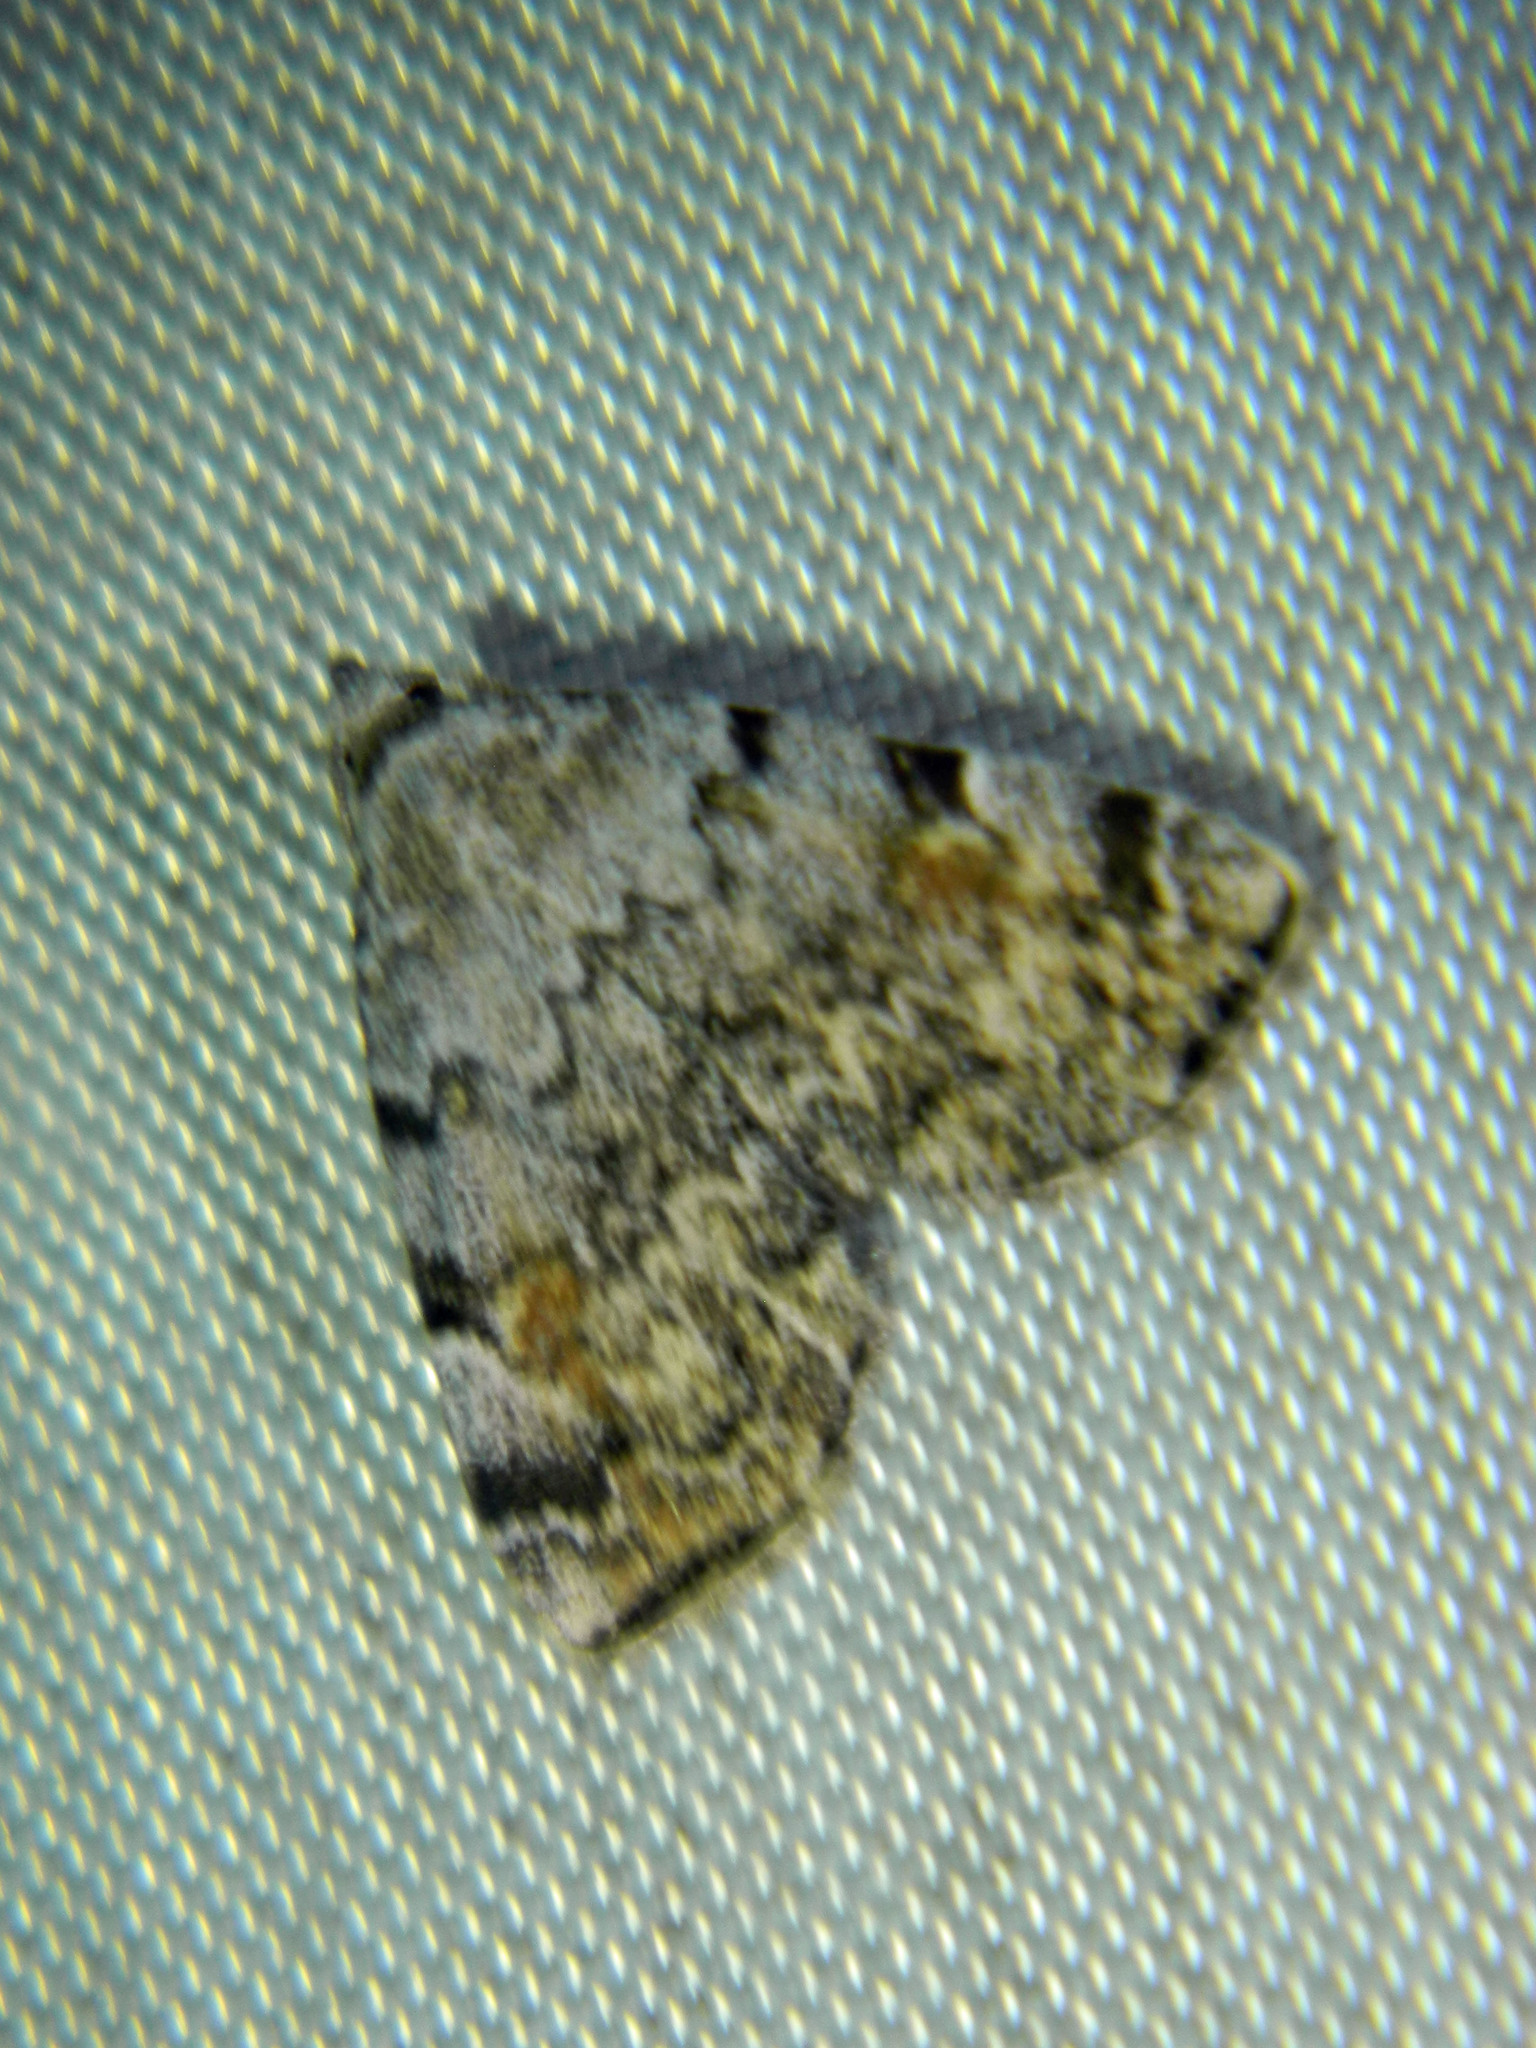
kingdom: Animalia
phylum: Arthropoda
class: Insecta
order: Lepidoptera
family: Erebidae
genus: Idia
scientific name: Idia americalis
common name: American idia moth
